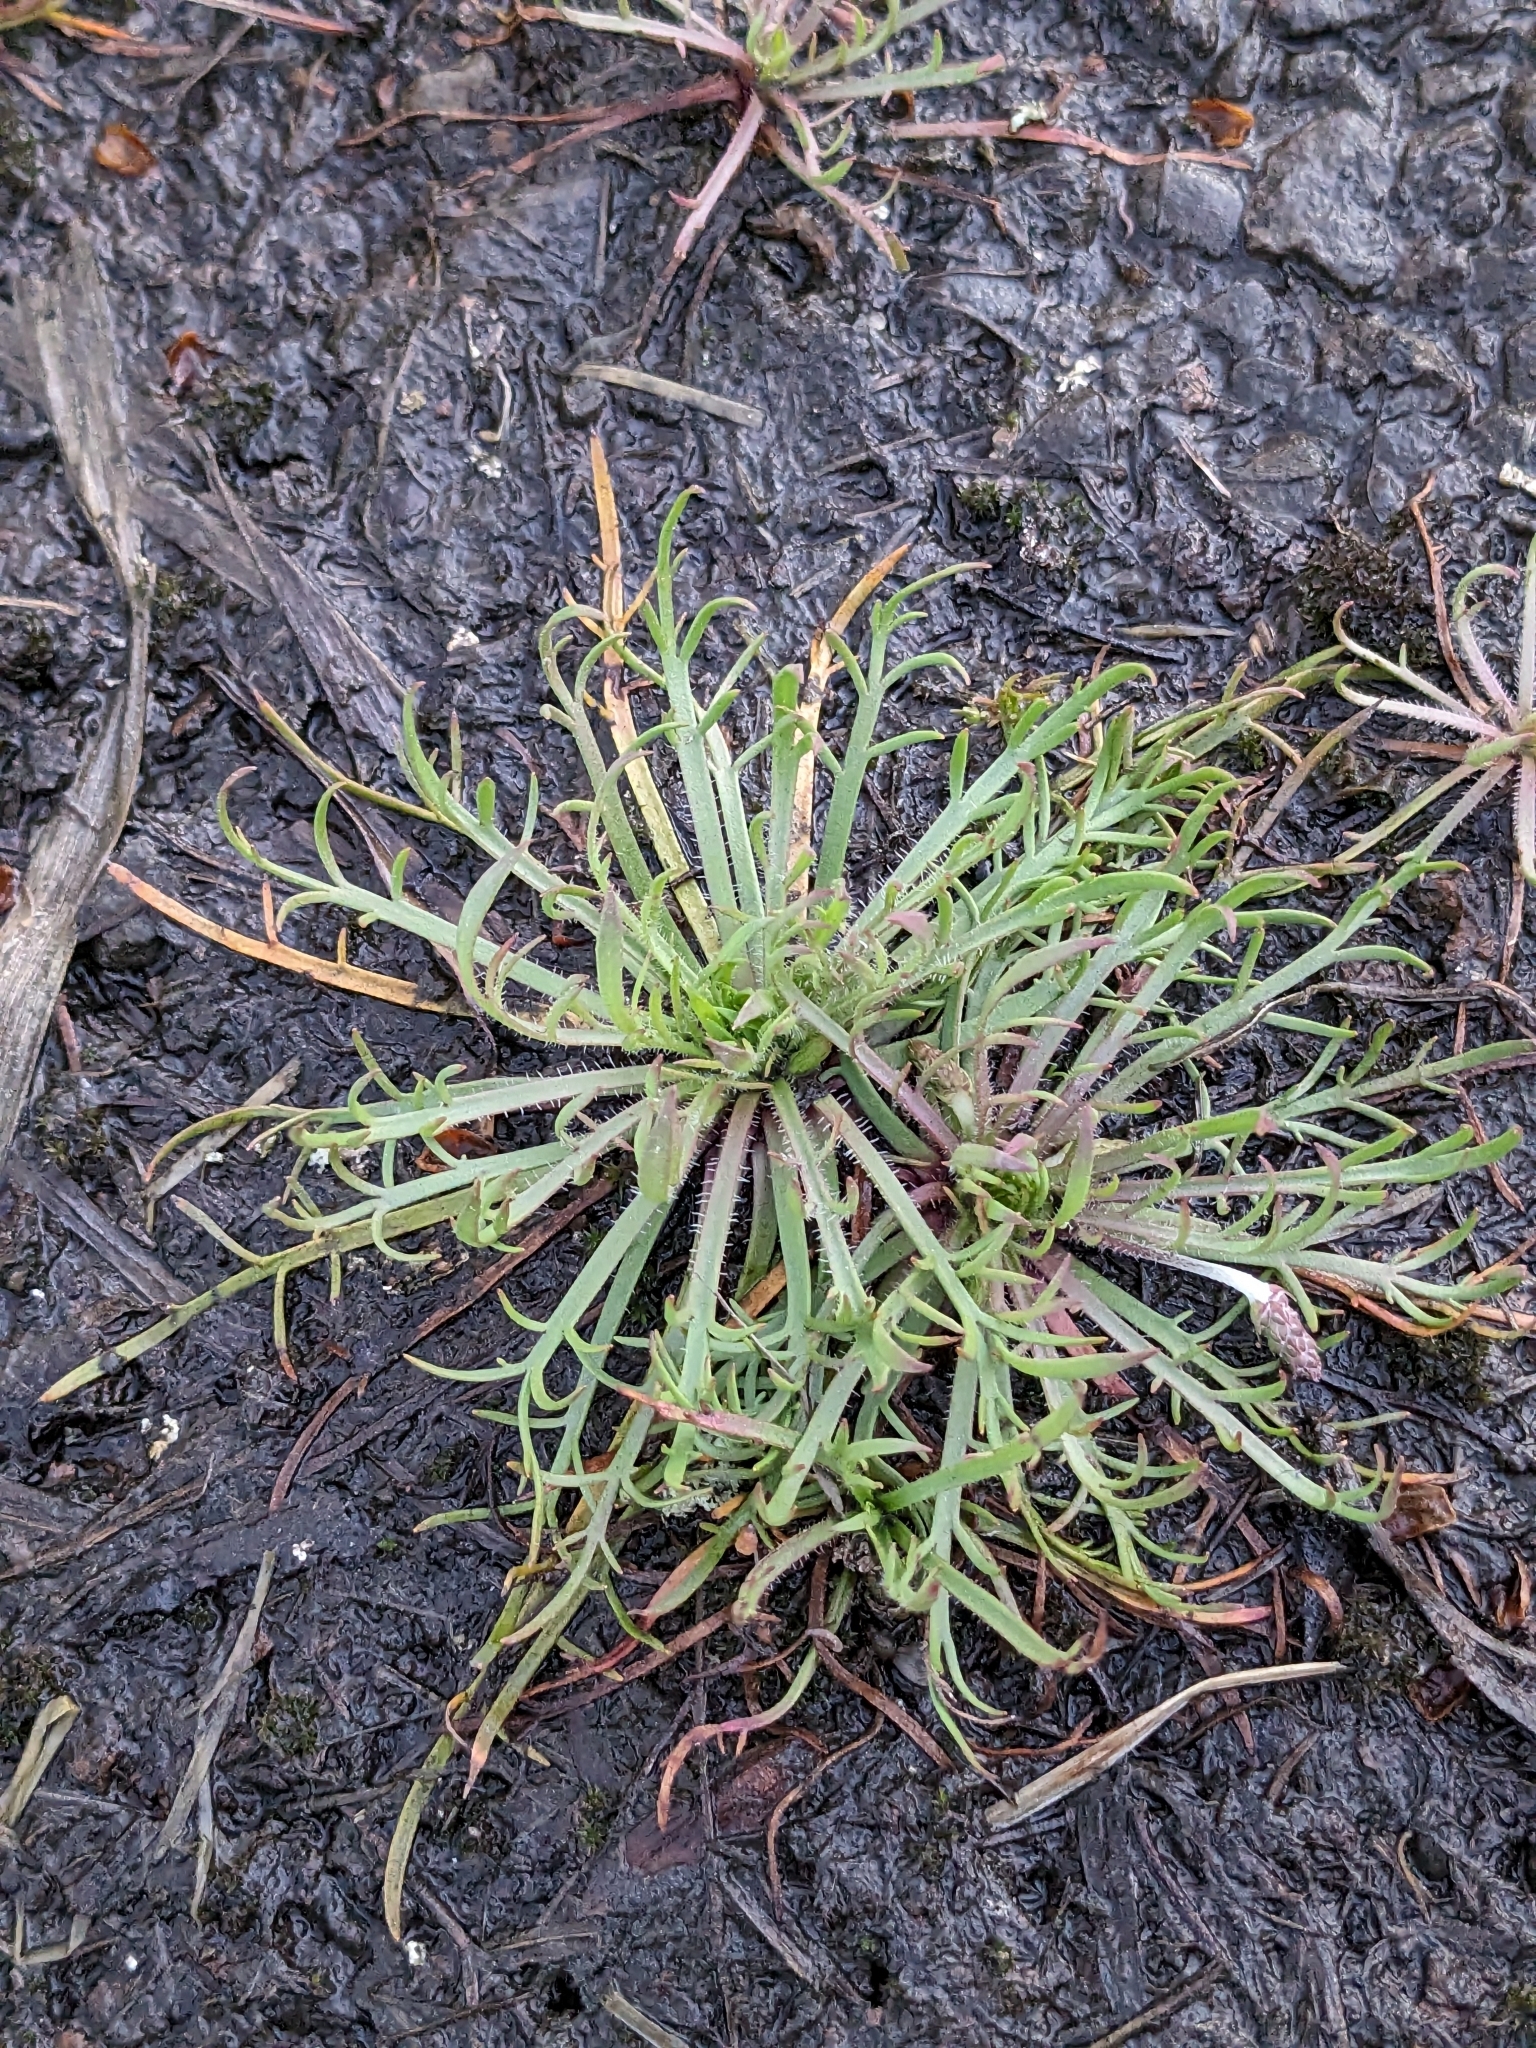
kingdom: Plantae
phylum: Tracheophyta
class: Magnoliopsida
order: Lamiales
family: Plantaginaceae
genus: Plantago
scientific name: Plantago coronopus
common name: Buck's-horn plantain
